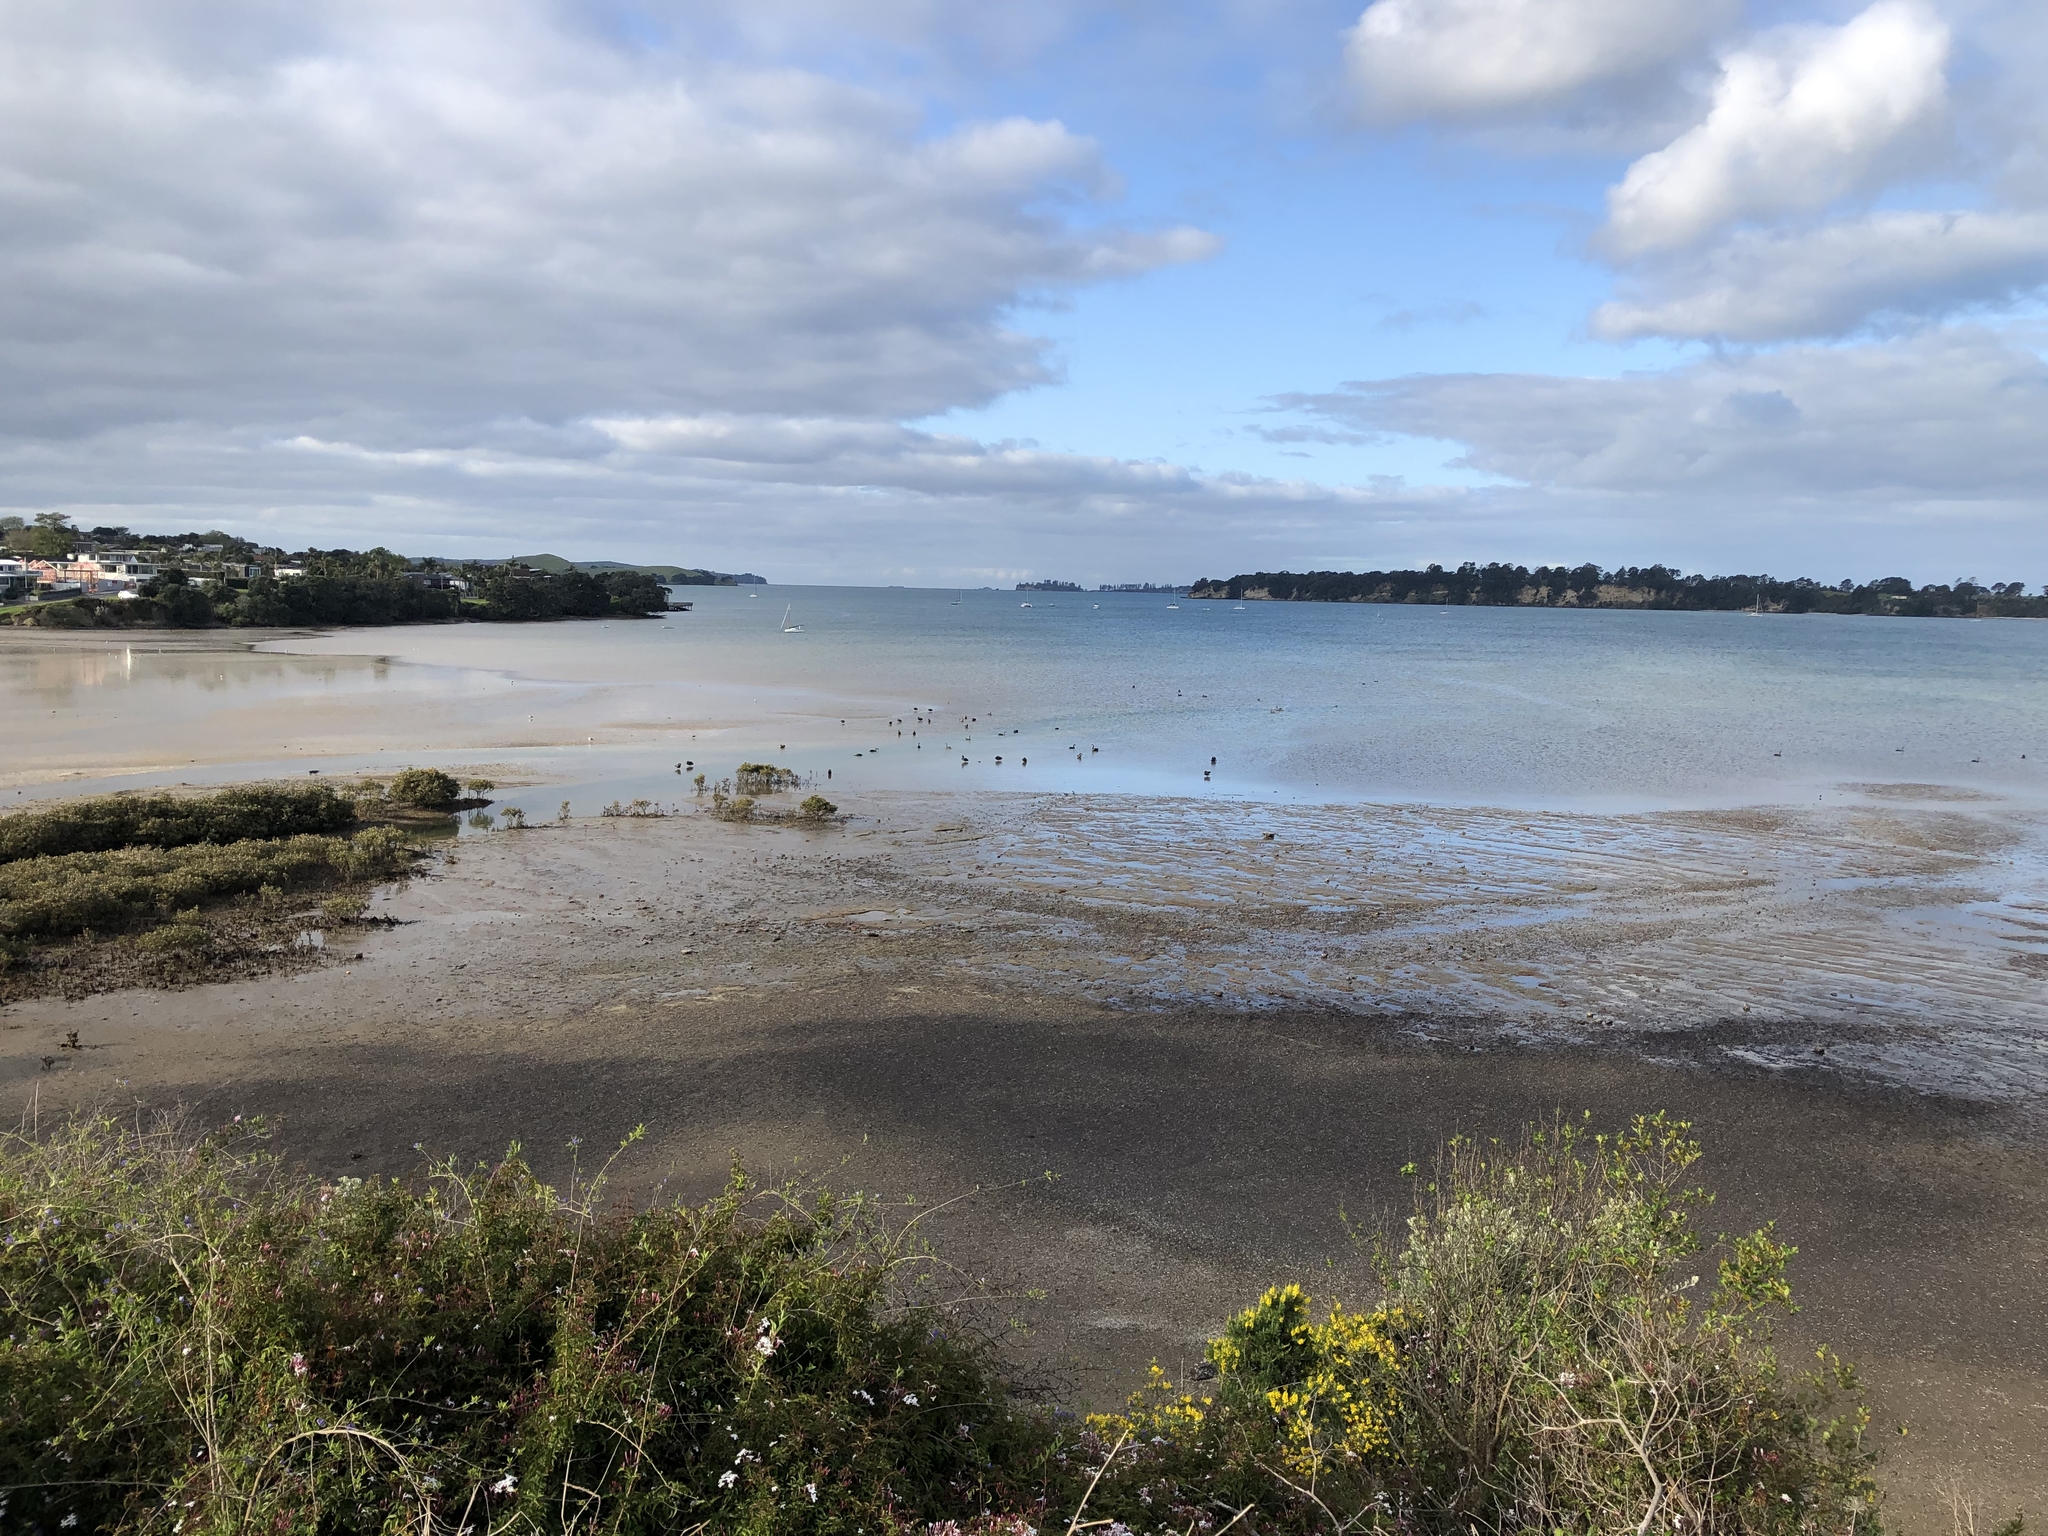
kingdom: Animalia
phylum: Chordata
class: Aves
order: Anseriformes
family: Anatidae
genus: Cygnus
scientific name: Cygnus atratus
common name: Black swan
